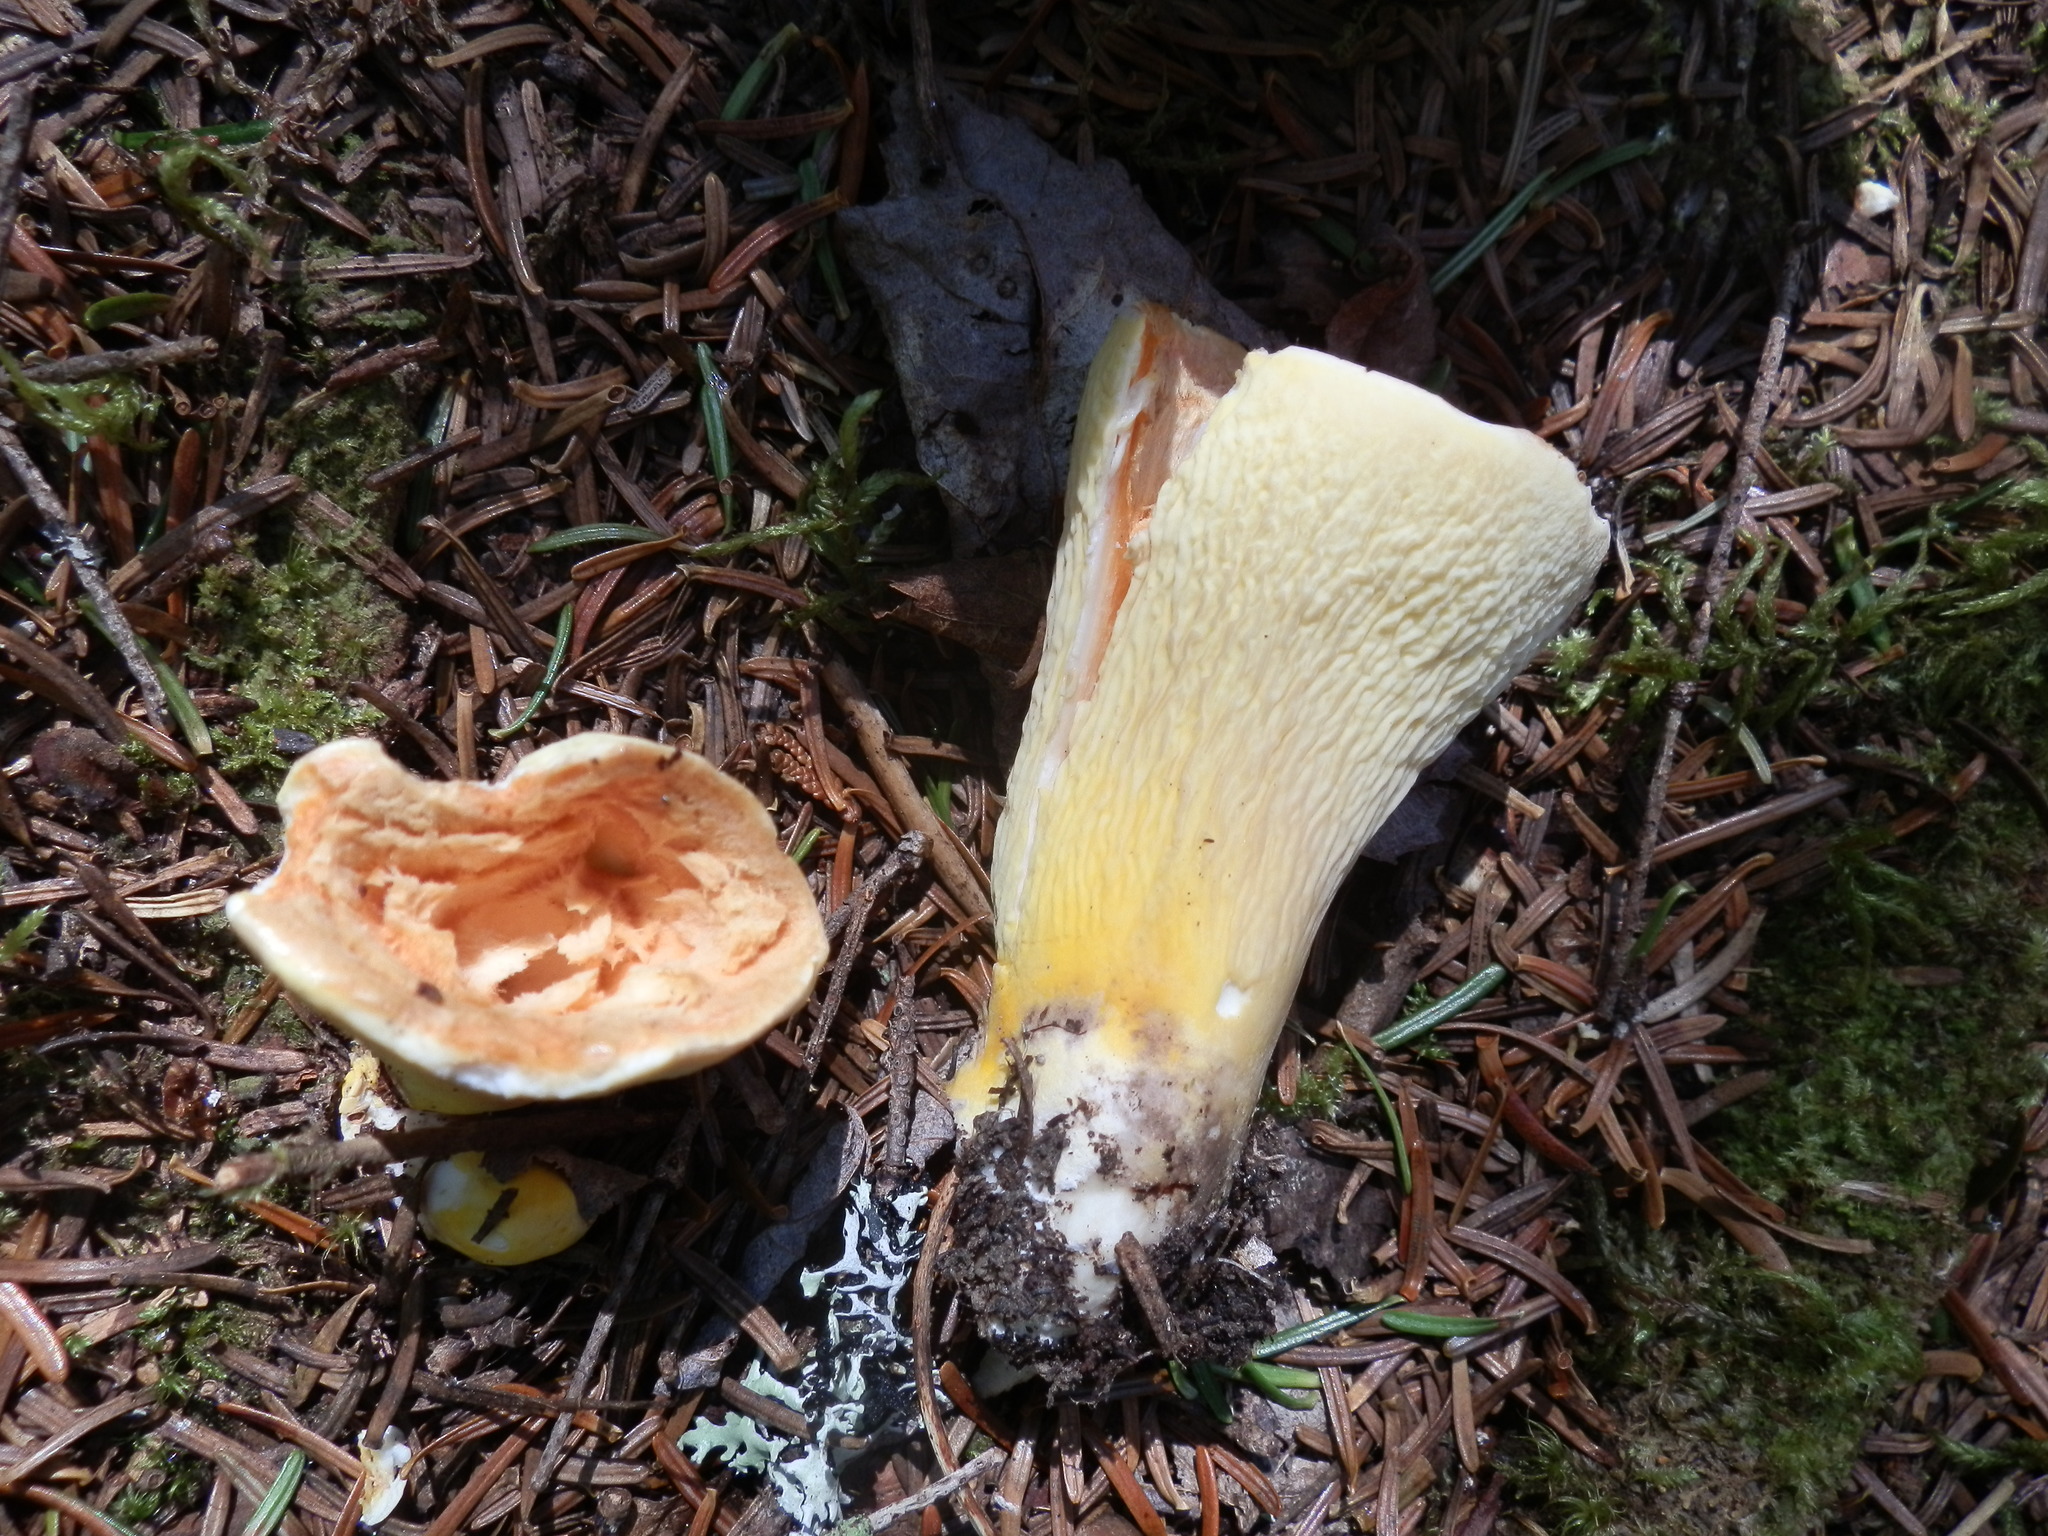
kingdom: Fungi
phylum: Basidiomycota
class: Agaricomycetes
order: Gomphales
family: Gomphaceae
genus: Turbinellus
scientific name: Turbinellus floccosus
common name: Scaly chanterelle
